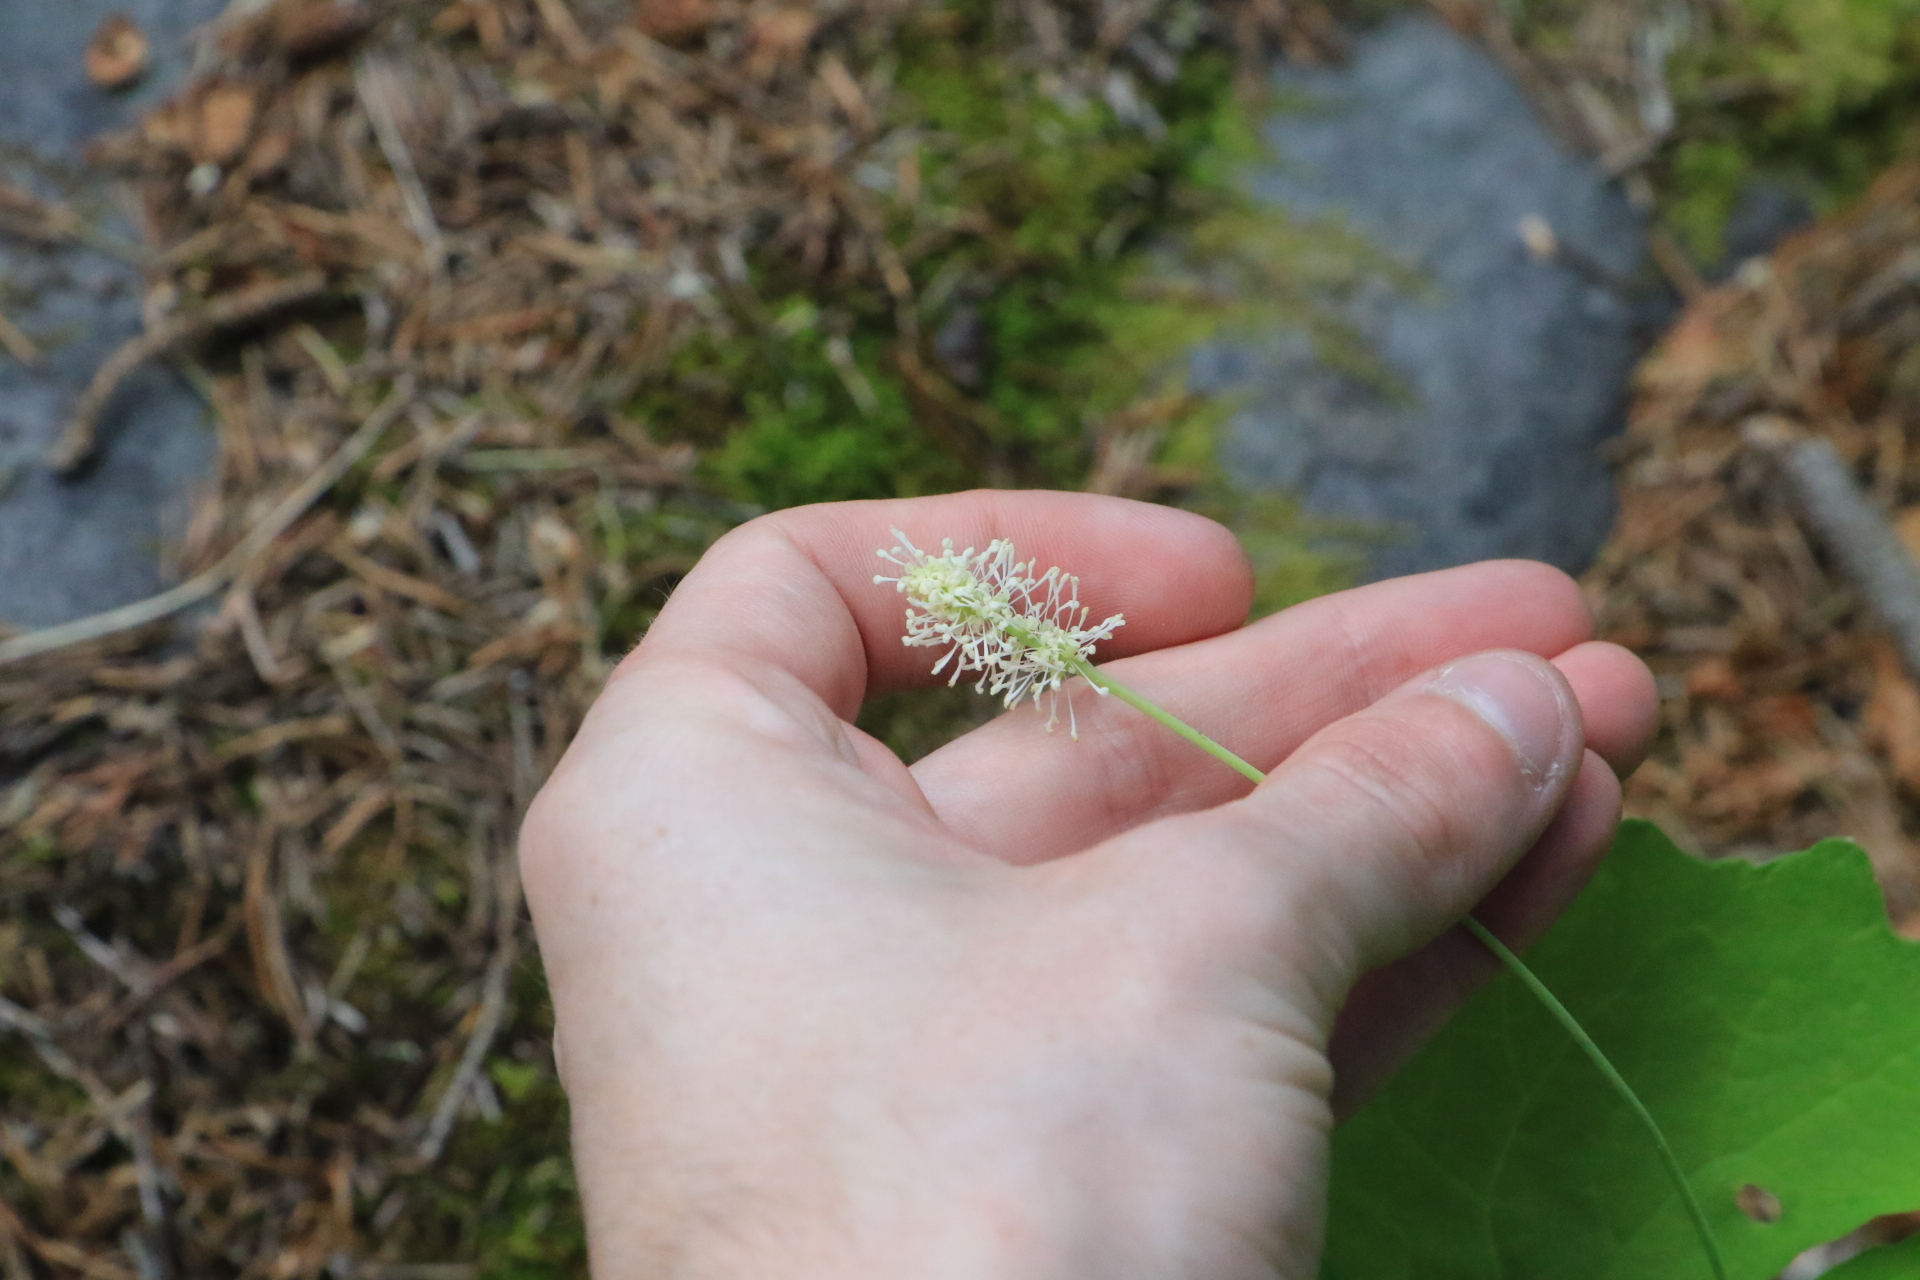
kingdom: Plantae
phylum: Tracheophyta
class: Magnoliopsida
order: Ranunculales
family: Berberidaceae
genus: Achlys
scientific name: Achlys californica
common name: California deer-foot
